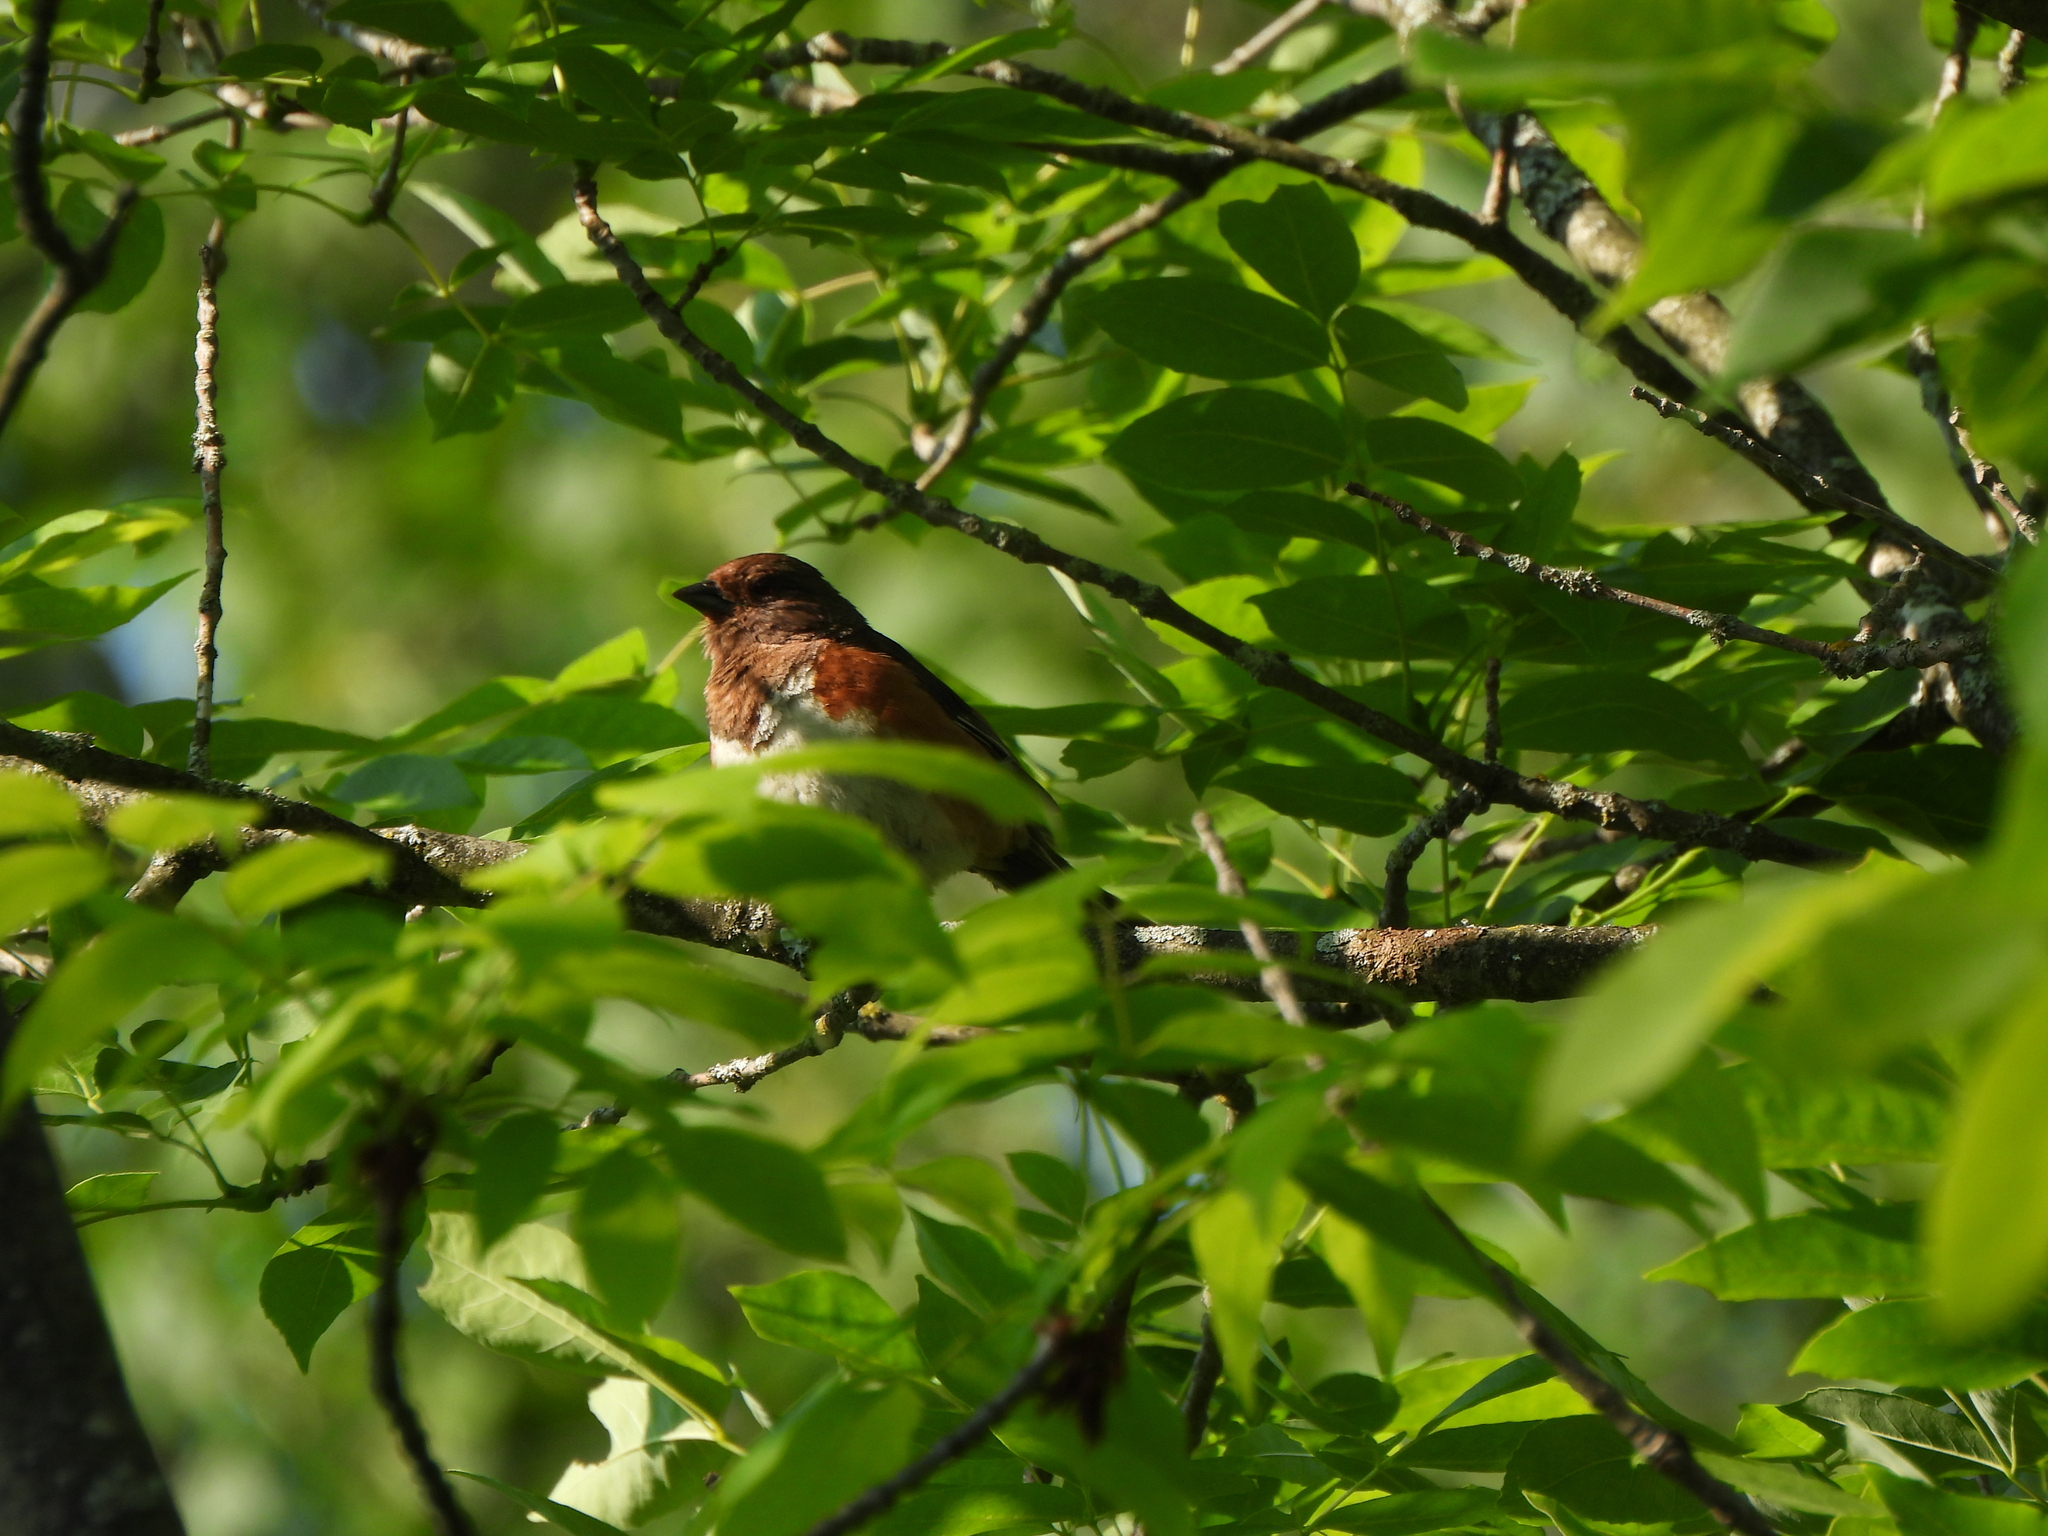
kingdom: Animalia
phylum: Chordata
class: Aves
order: Passeriformes
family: Passerellidae
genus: Pipilo
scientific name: Pipilo erythrophthalmus
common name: Eastern towhee
